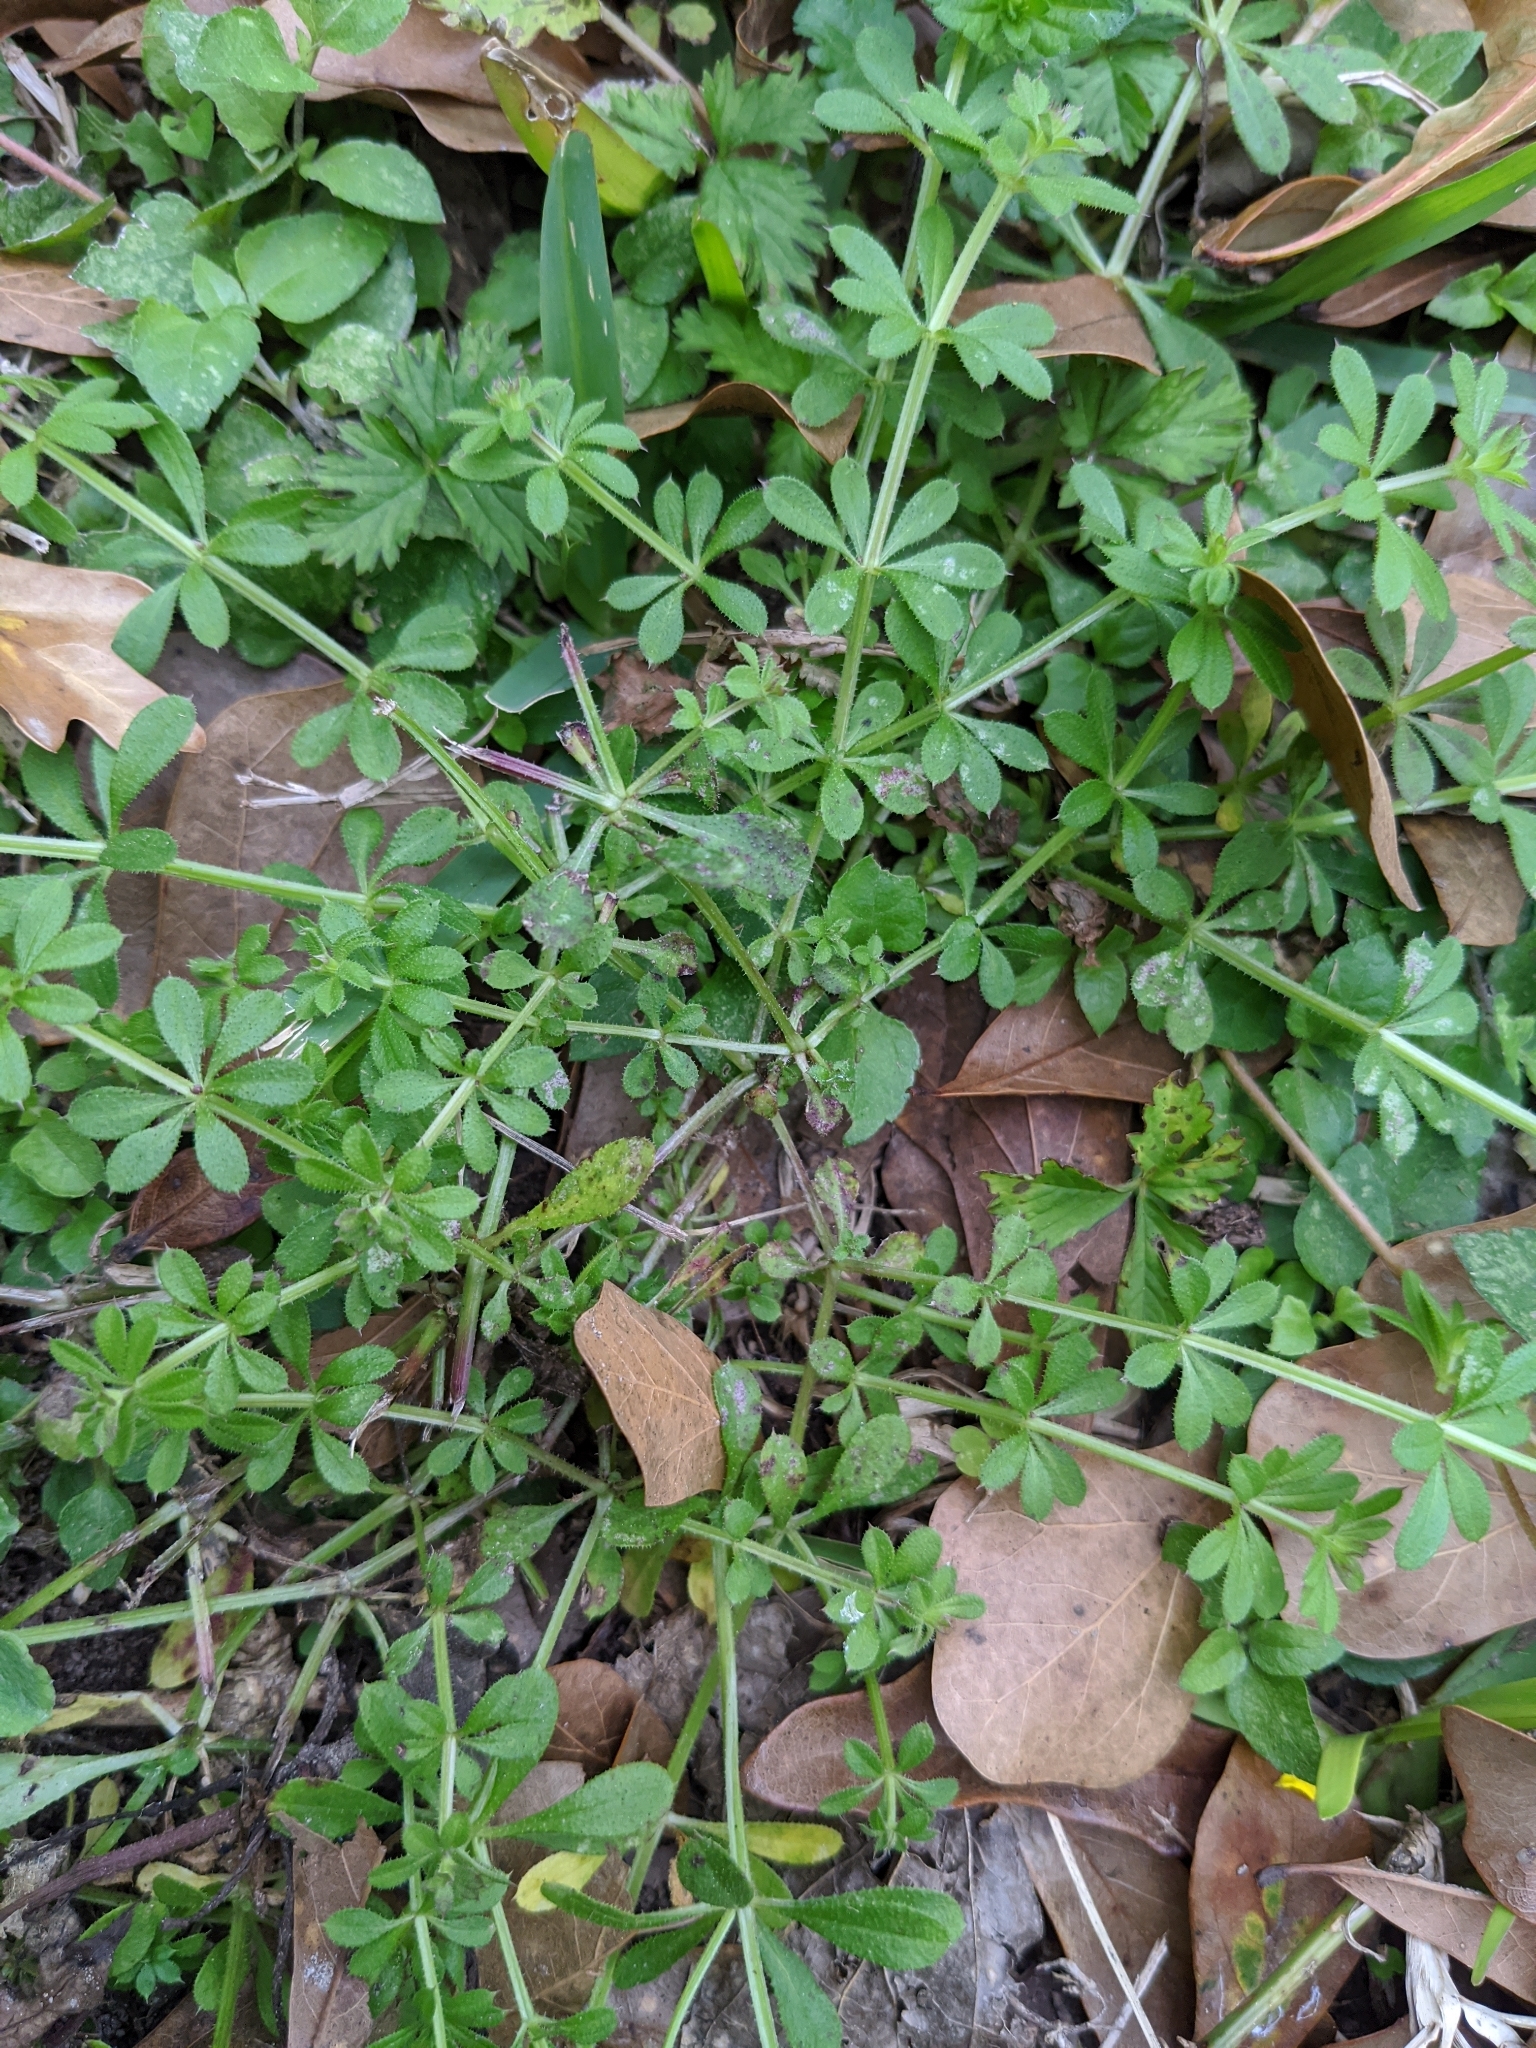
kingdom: Plantae
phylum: Tracheophyta
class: Magnoliopsida
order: Gentianales
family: Rubiaceae
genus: Galium
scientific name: Galium aparine
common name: Cleavers
